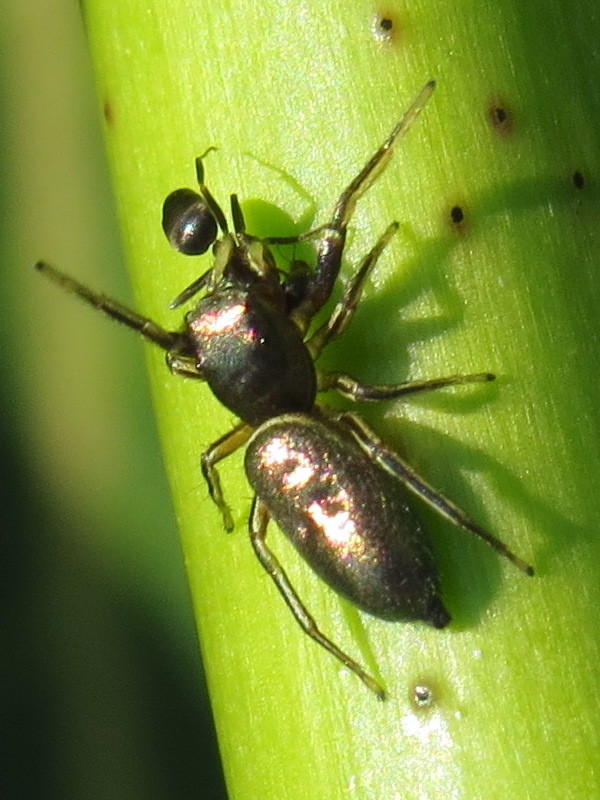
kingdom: Animalia
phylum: Arthropoda
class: Arachnida
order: Araneae
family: Salticidae
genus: Tutelina
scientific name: Tutelina elegans
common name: Thin-spined jumping spider
